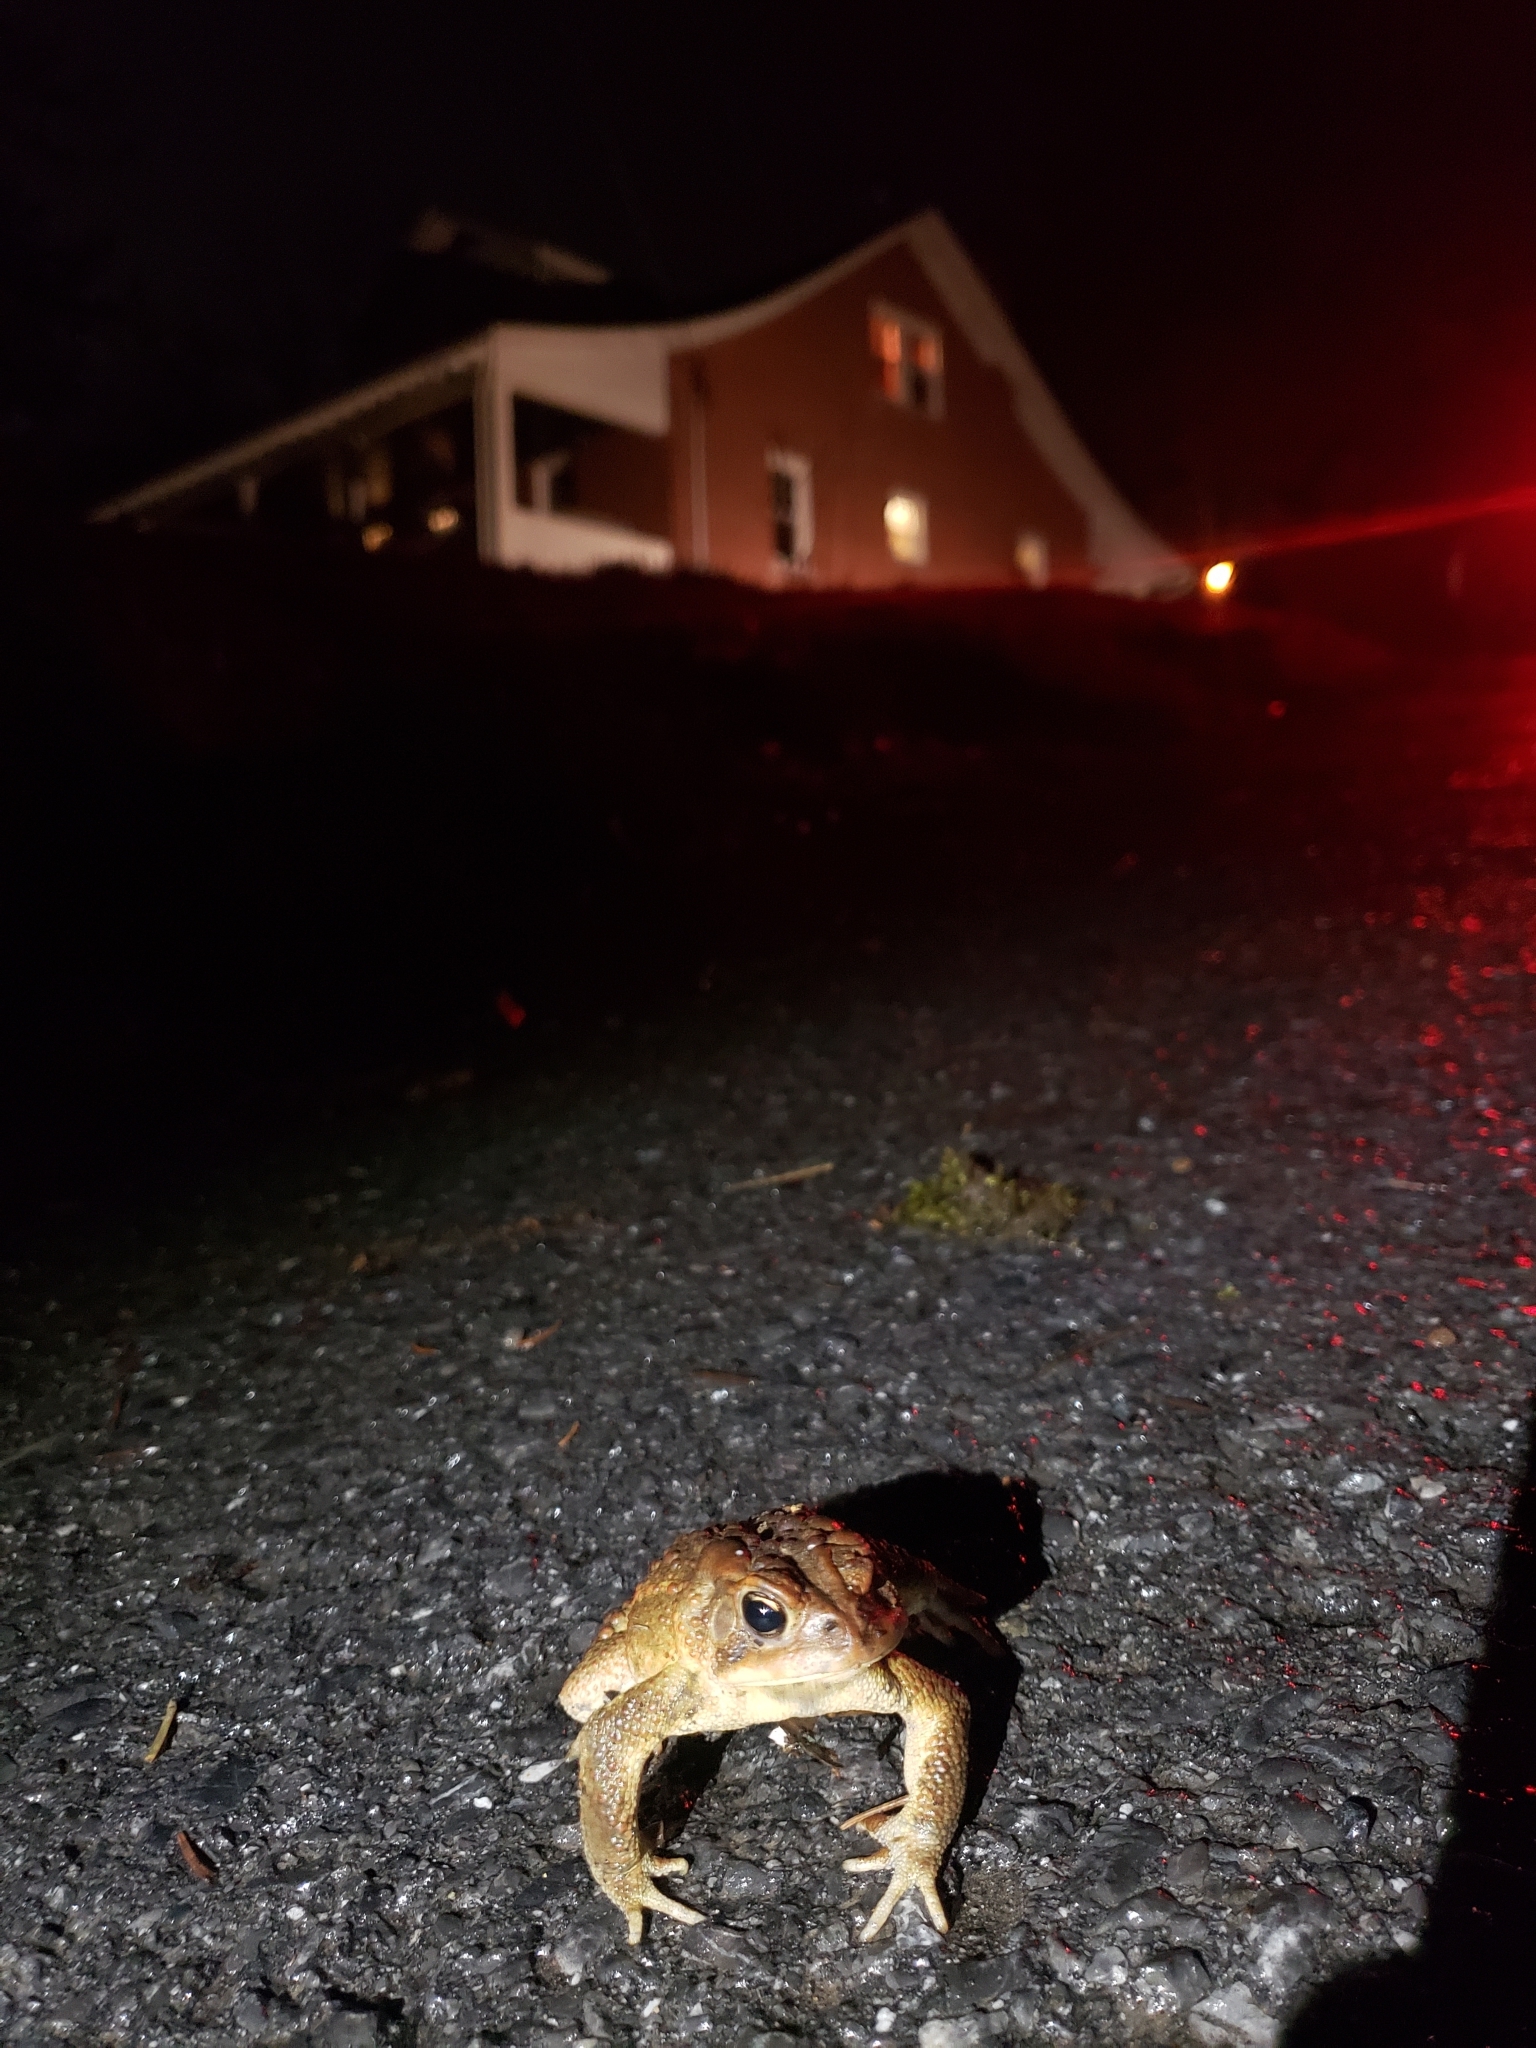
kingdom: Animalia
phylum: Chordata
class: Amphibia
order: Anura
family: Bufonidae
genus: Anaxyrus
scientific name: Anaxyrus americanus
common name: American toad
